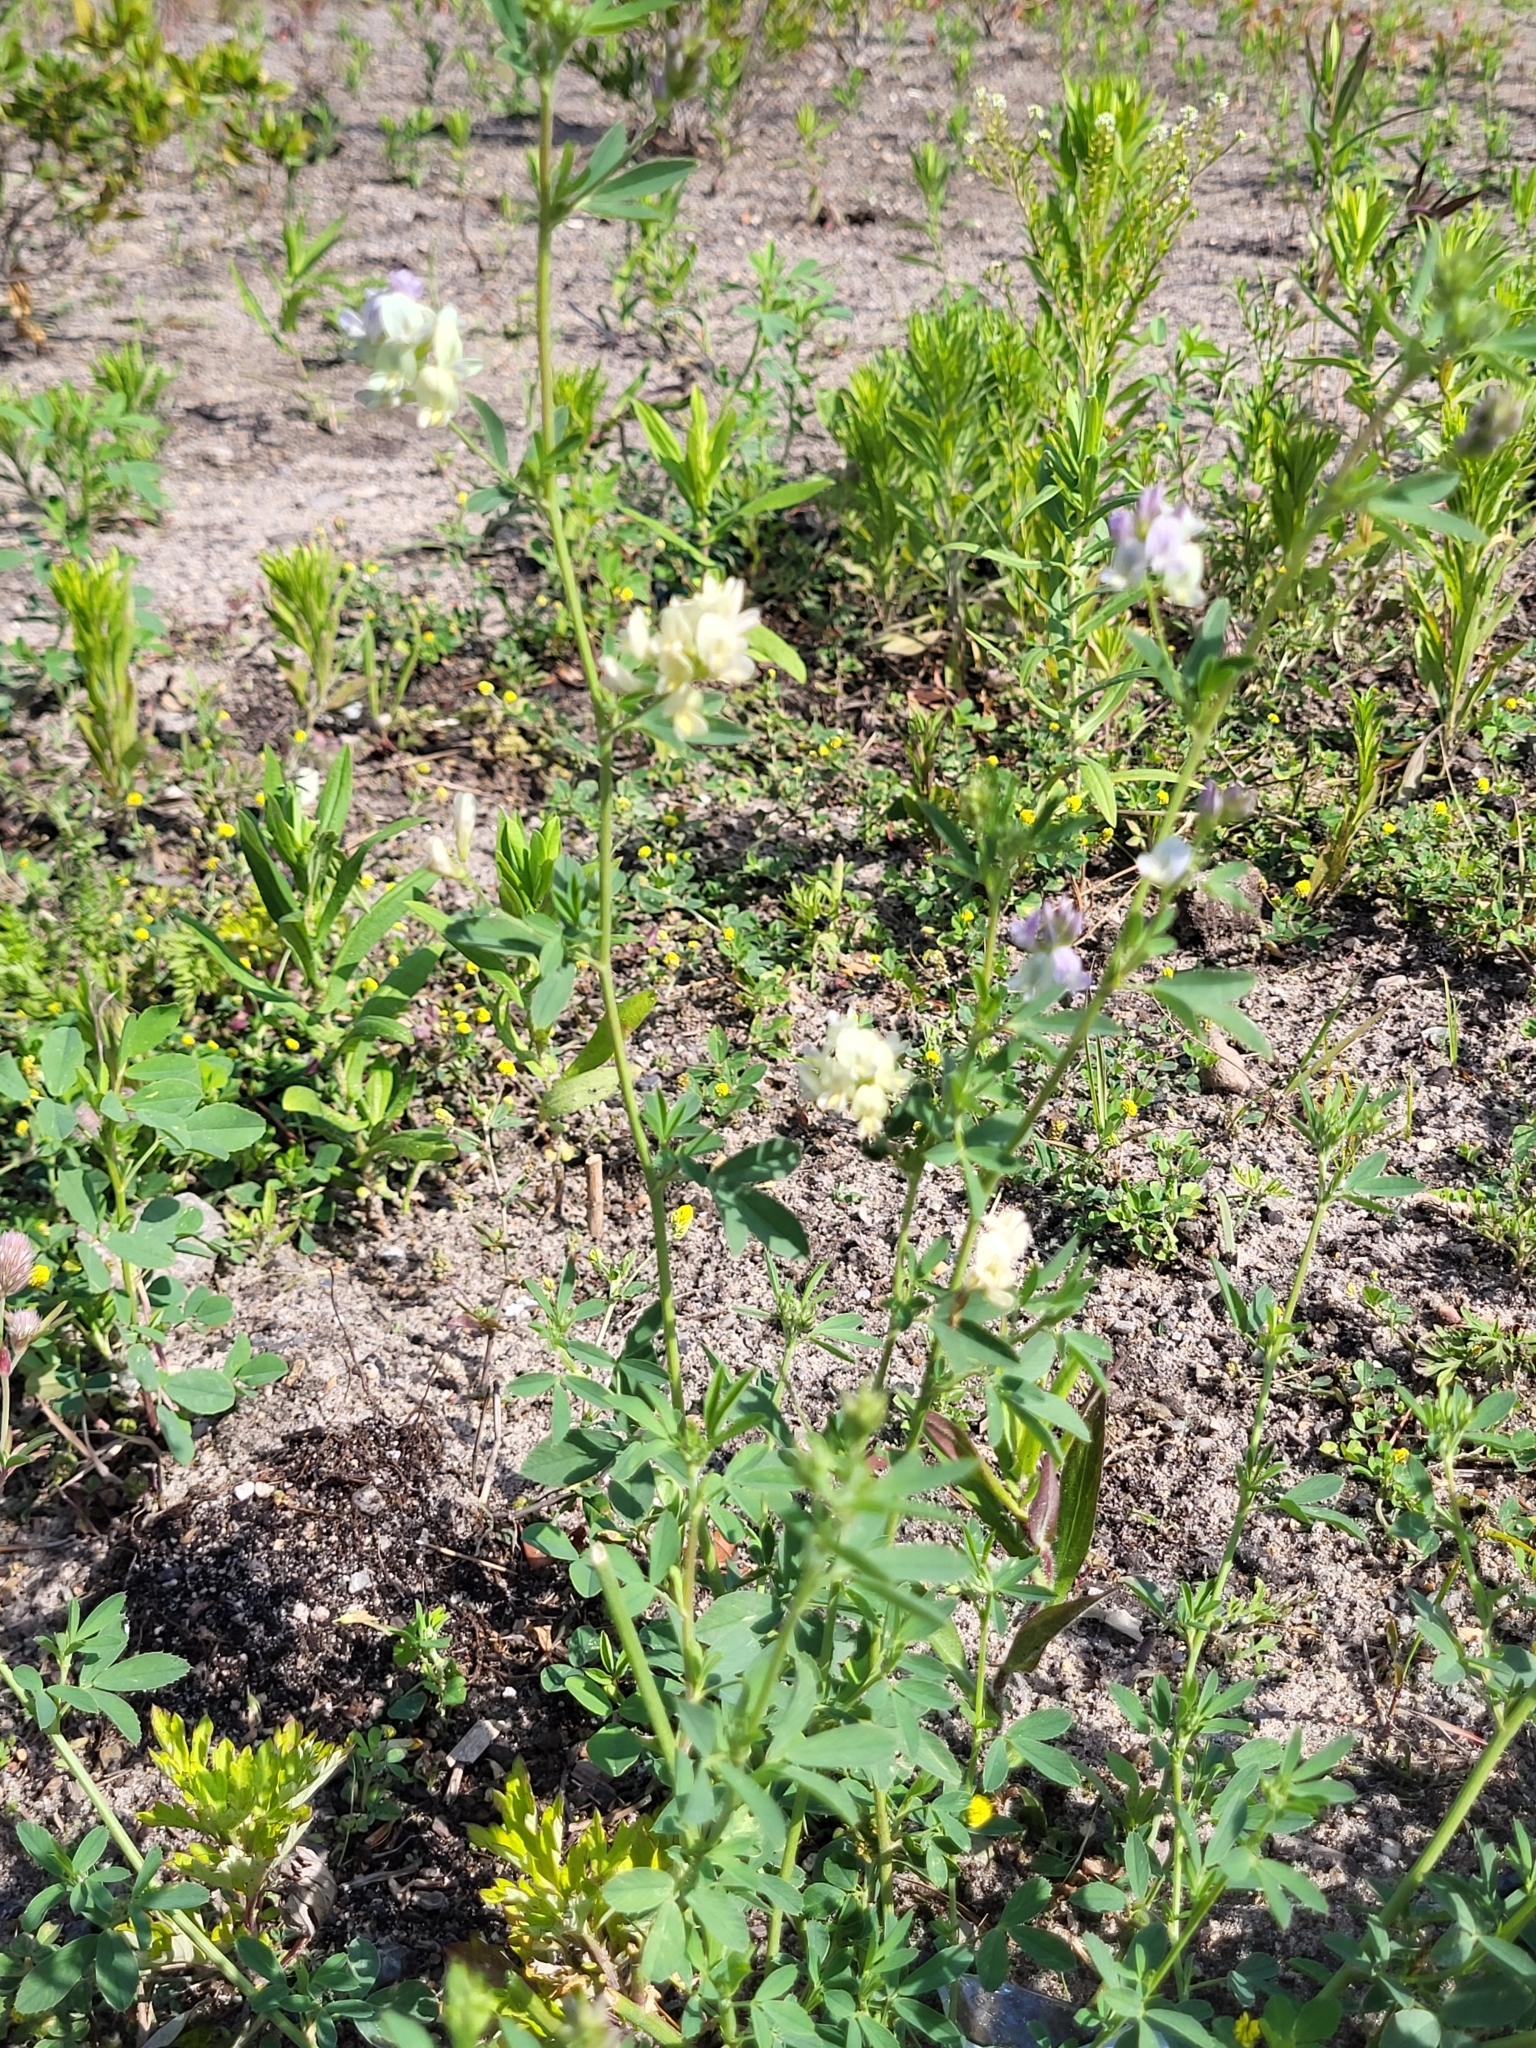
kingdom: Plantae
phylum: Tracheophyta
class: Magnoliopsida
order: Fabales
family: Fabaceae
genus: Medicago
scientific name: Medicago varia
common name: Sand lucerne
